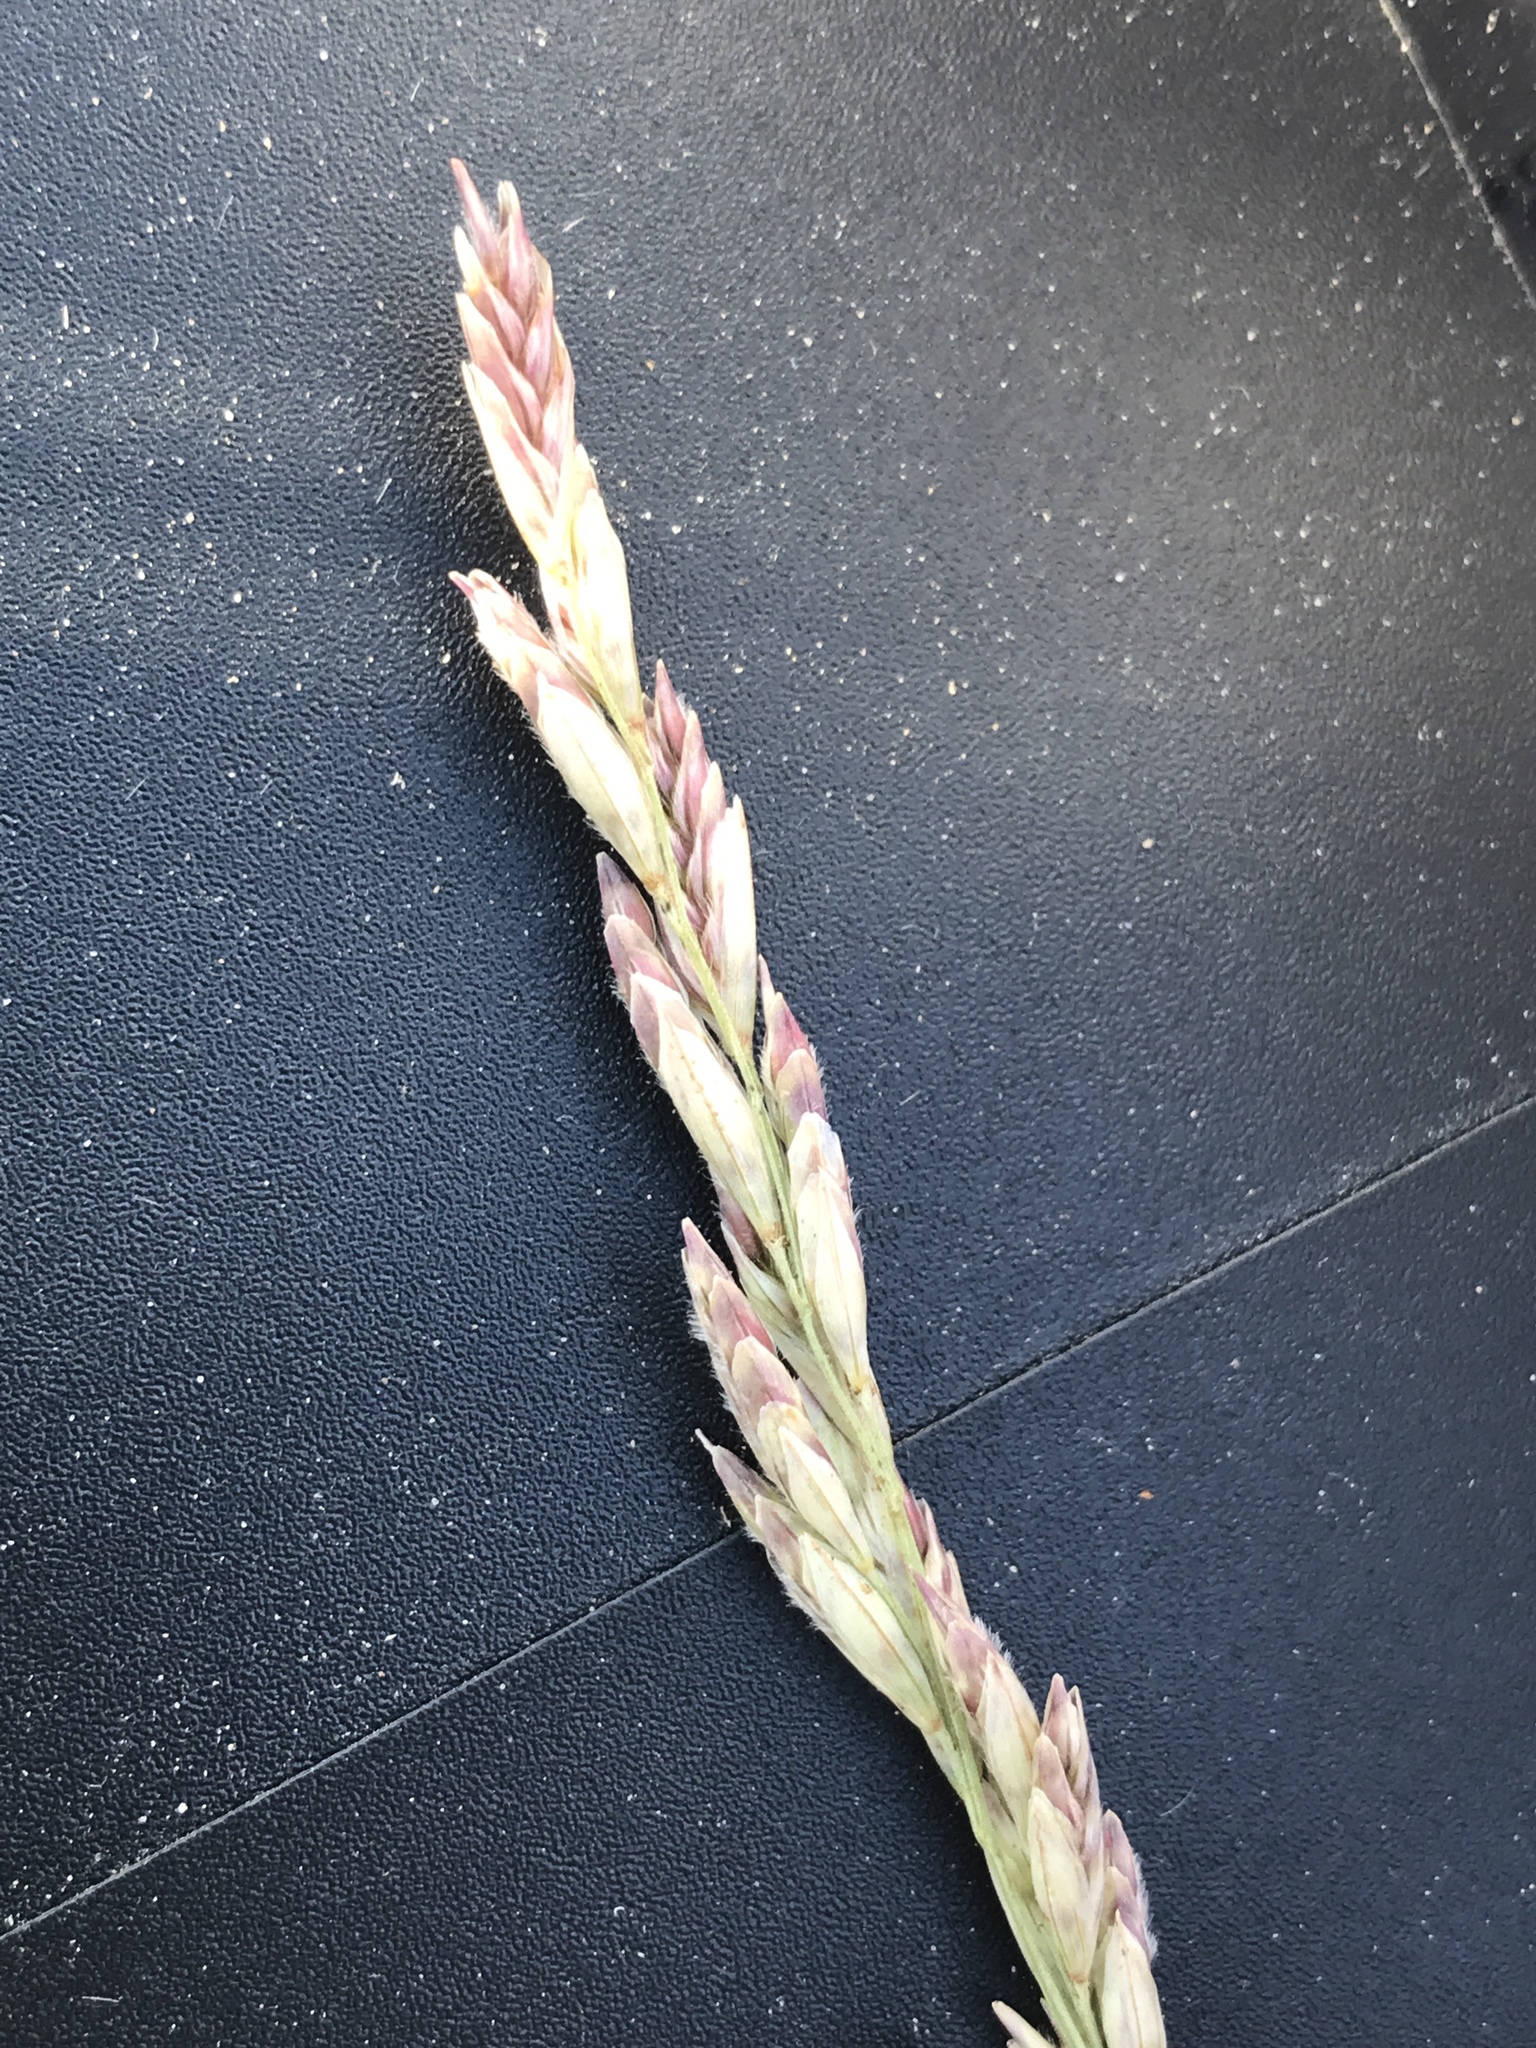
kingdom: Plantae
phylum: Tracheophyta
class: Liliopsida
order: Poales
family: Poaceae
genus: Tridentopsis
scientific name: Tridentopsis mutica
